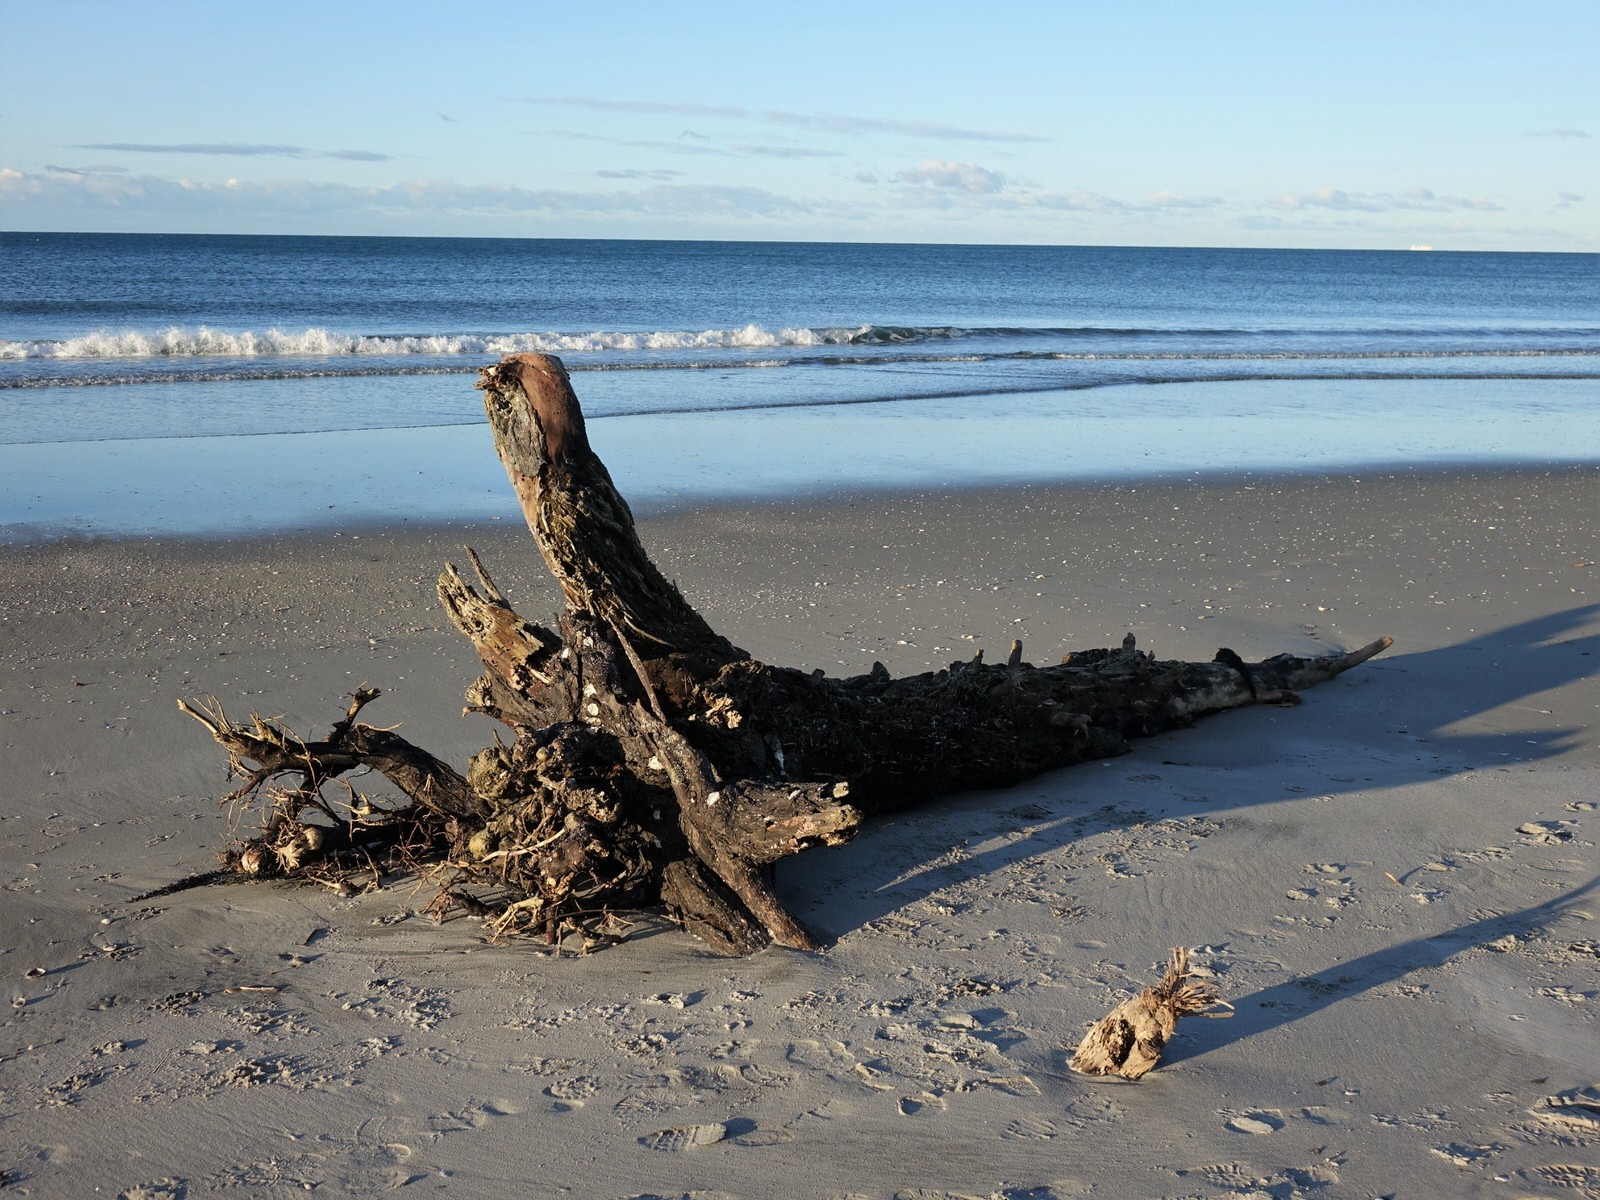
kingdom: Animalia
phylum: Bryozoa
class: Gymnolaemata
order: Cheilostomatida
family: Watersiporidae
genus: Watersipora
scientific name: Watersipora subatra
